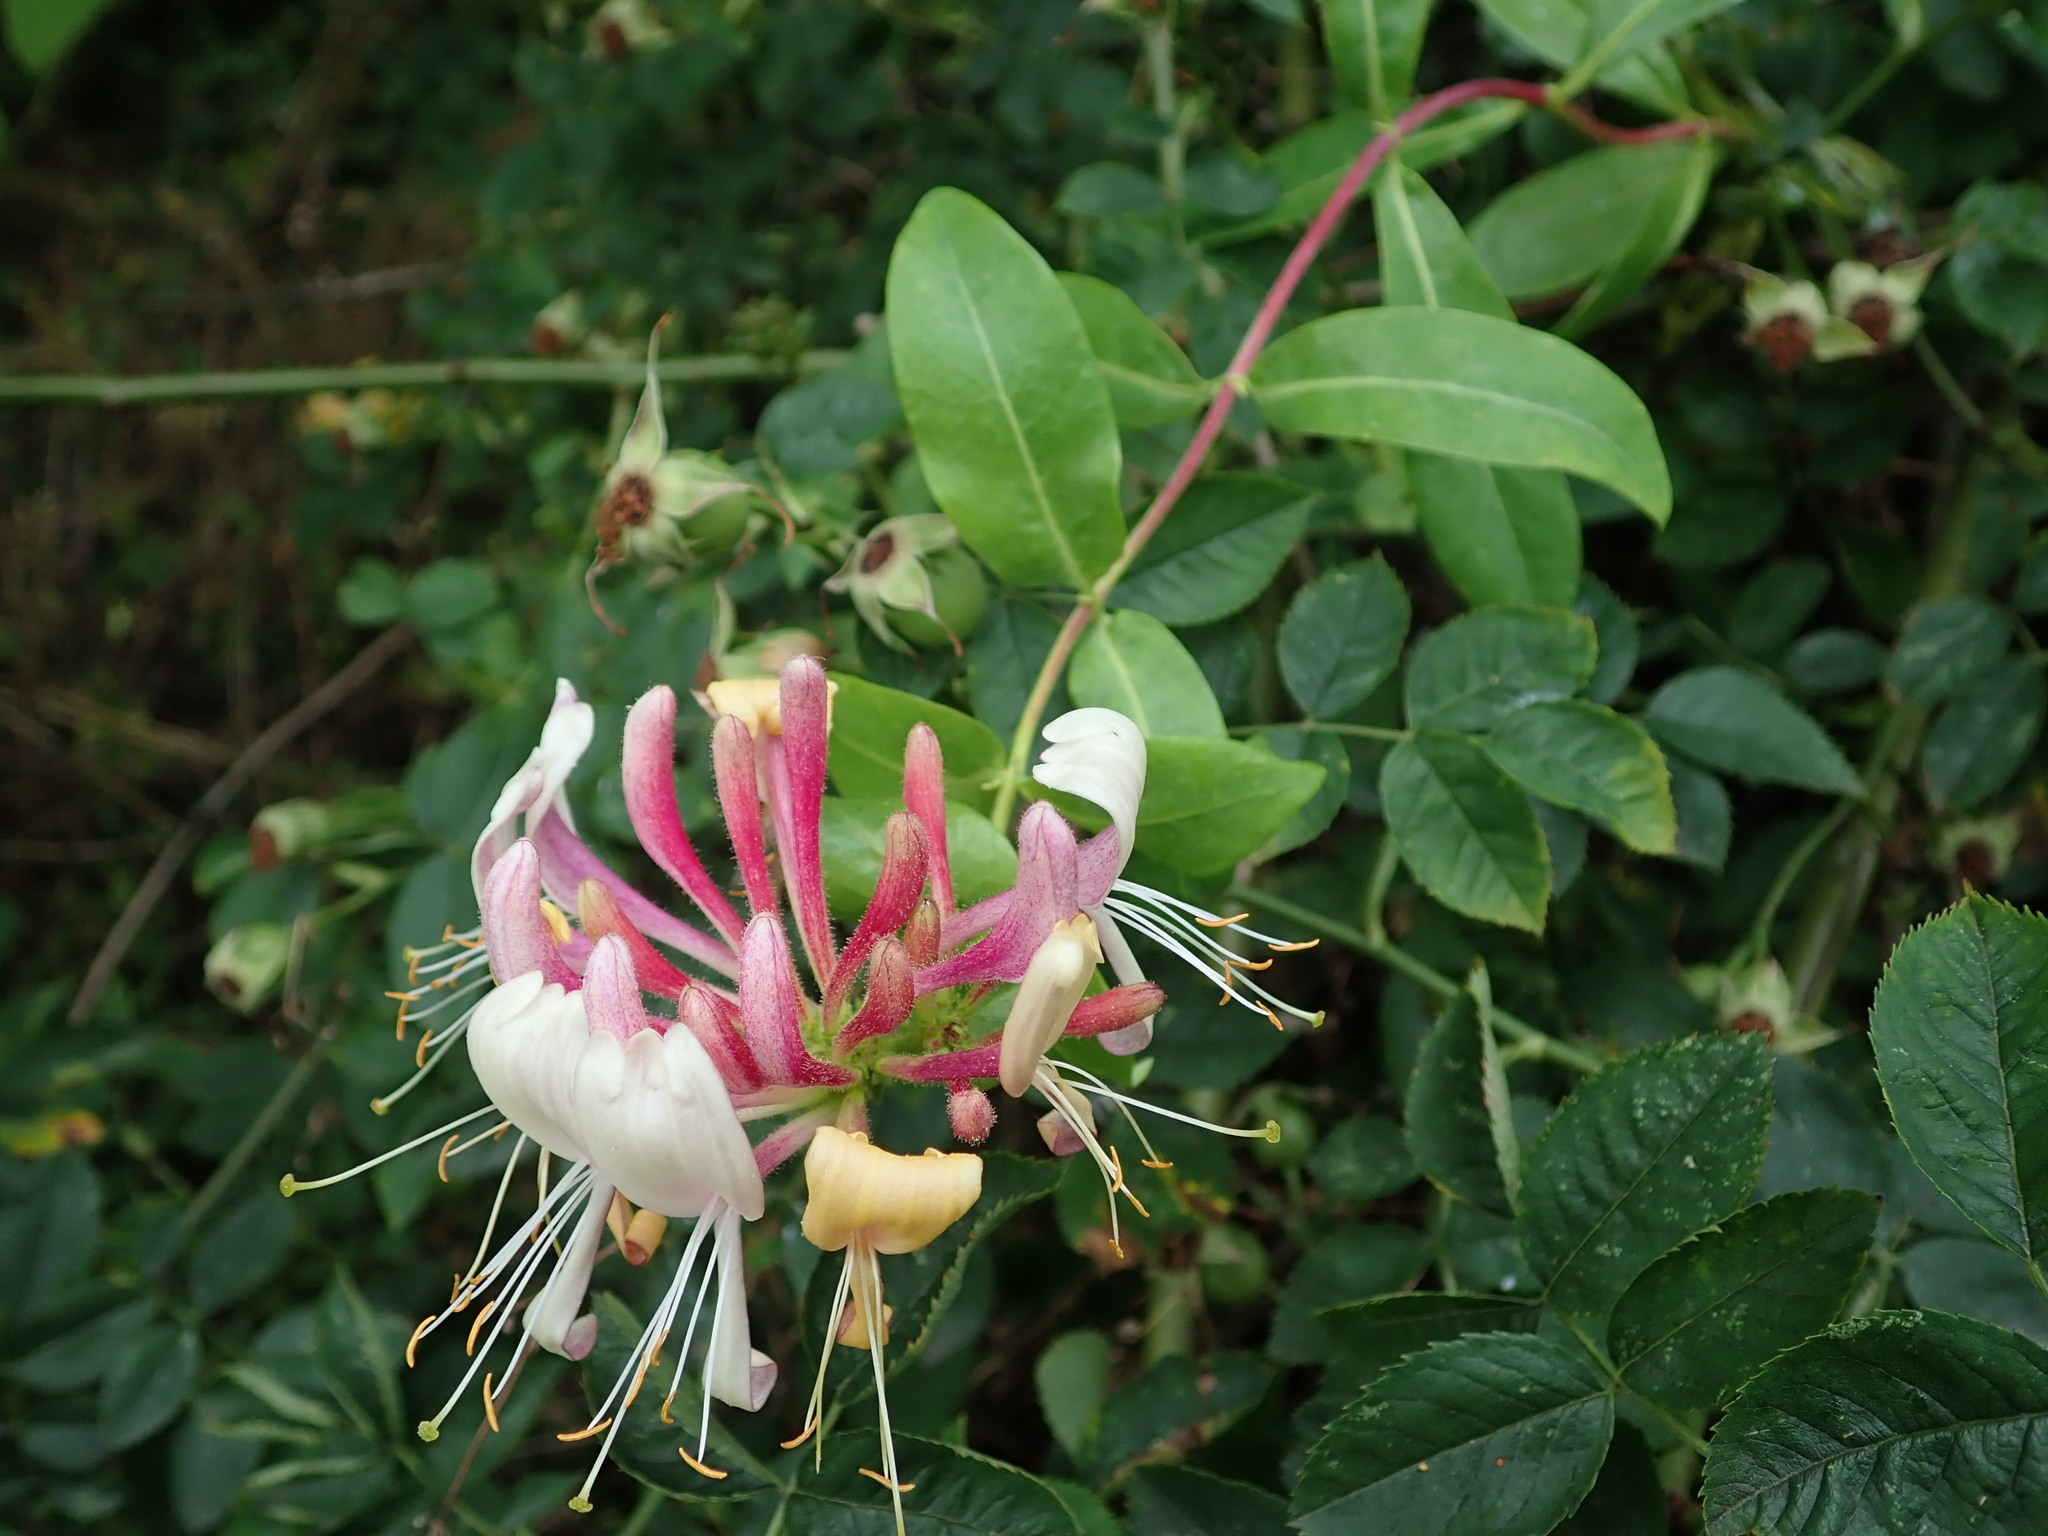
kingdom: Plantae
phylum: Tracheophyta
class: Magnoliopsida
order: Dipsacales
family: Caprifoliaceae
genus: Lonicera
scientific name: Lonicera periclymenum
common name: European honeysuckle
